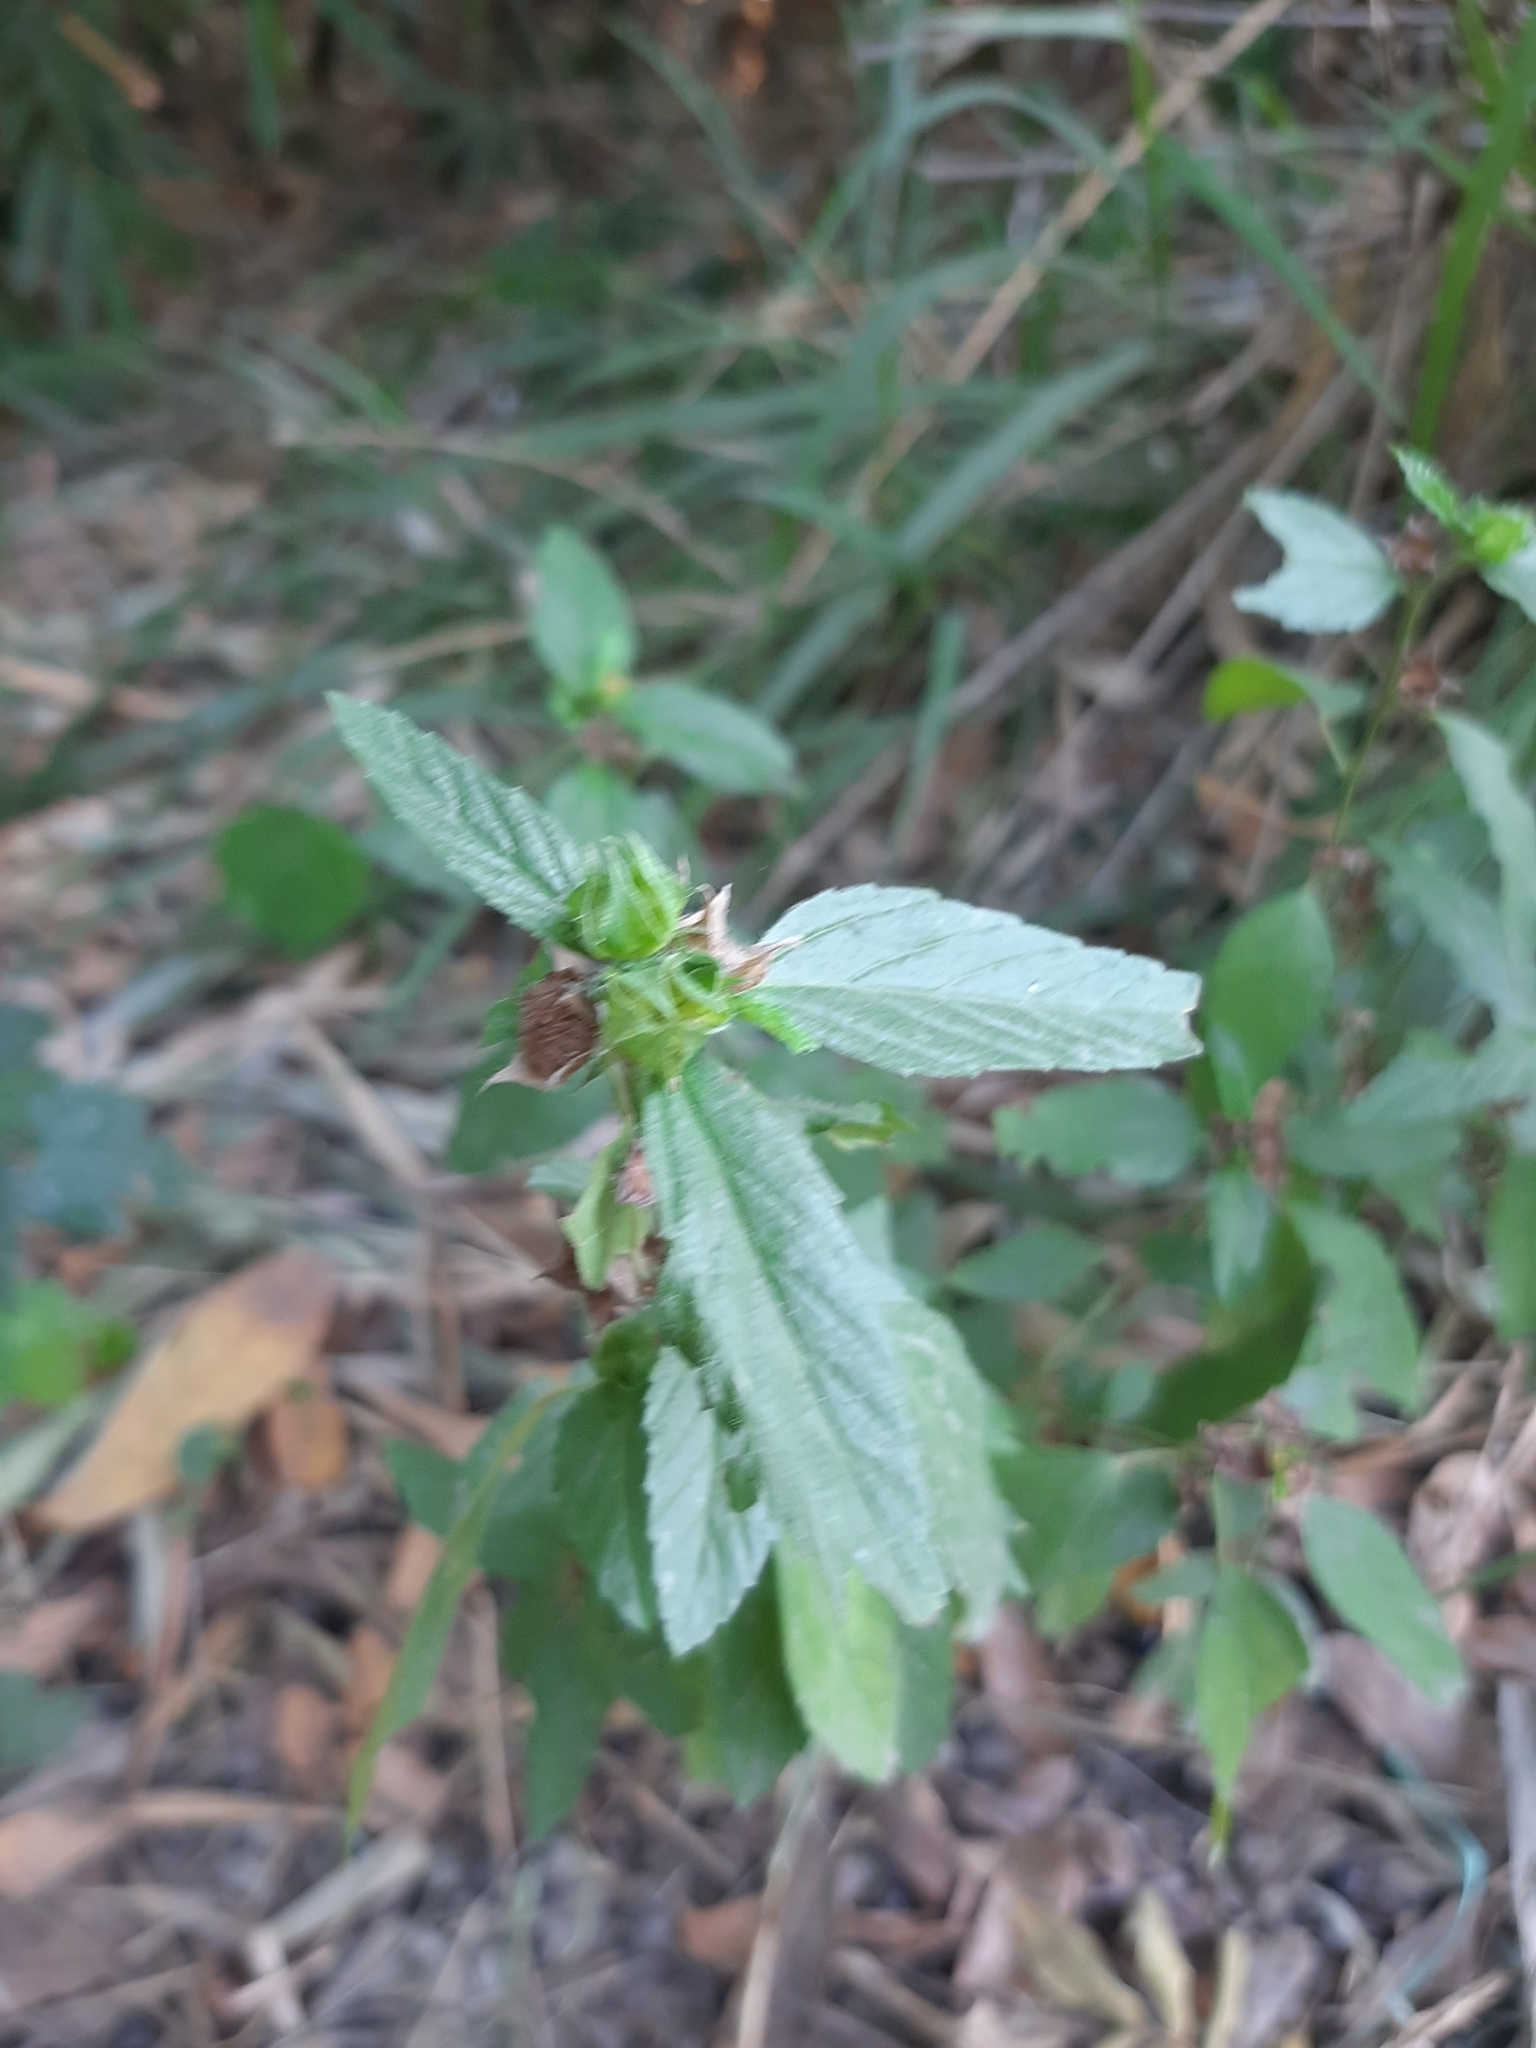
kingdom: Plantae
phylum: Tracheophyta
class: Magnoliopsida
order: Malvales
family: Malvaceae
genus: Malvastrum
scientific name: Malvastrum coromandelianum
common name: Threelobe false mallow
